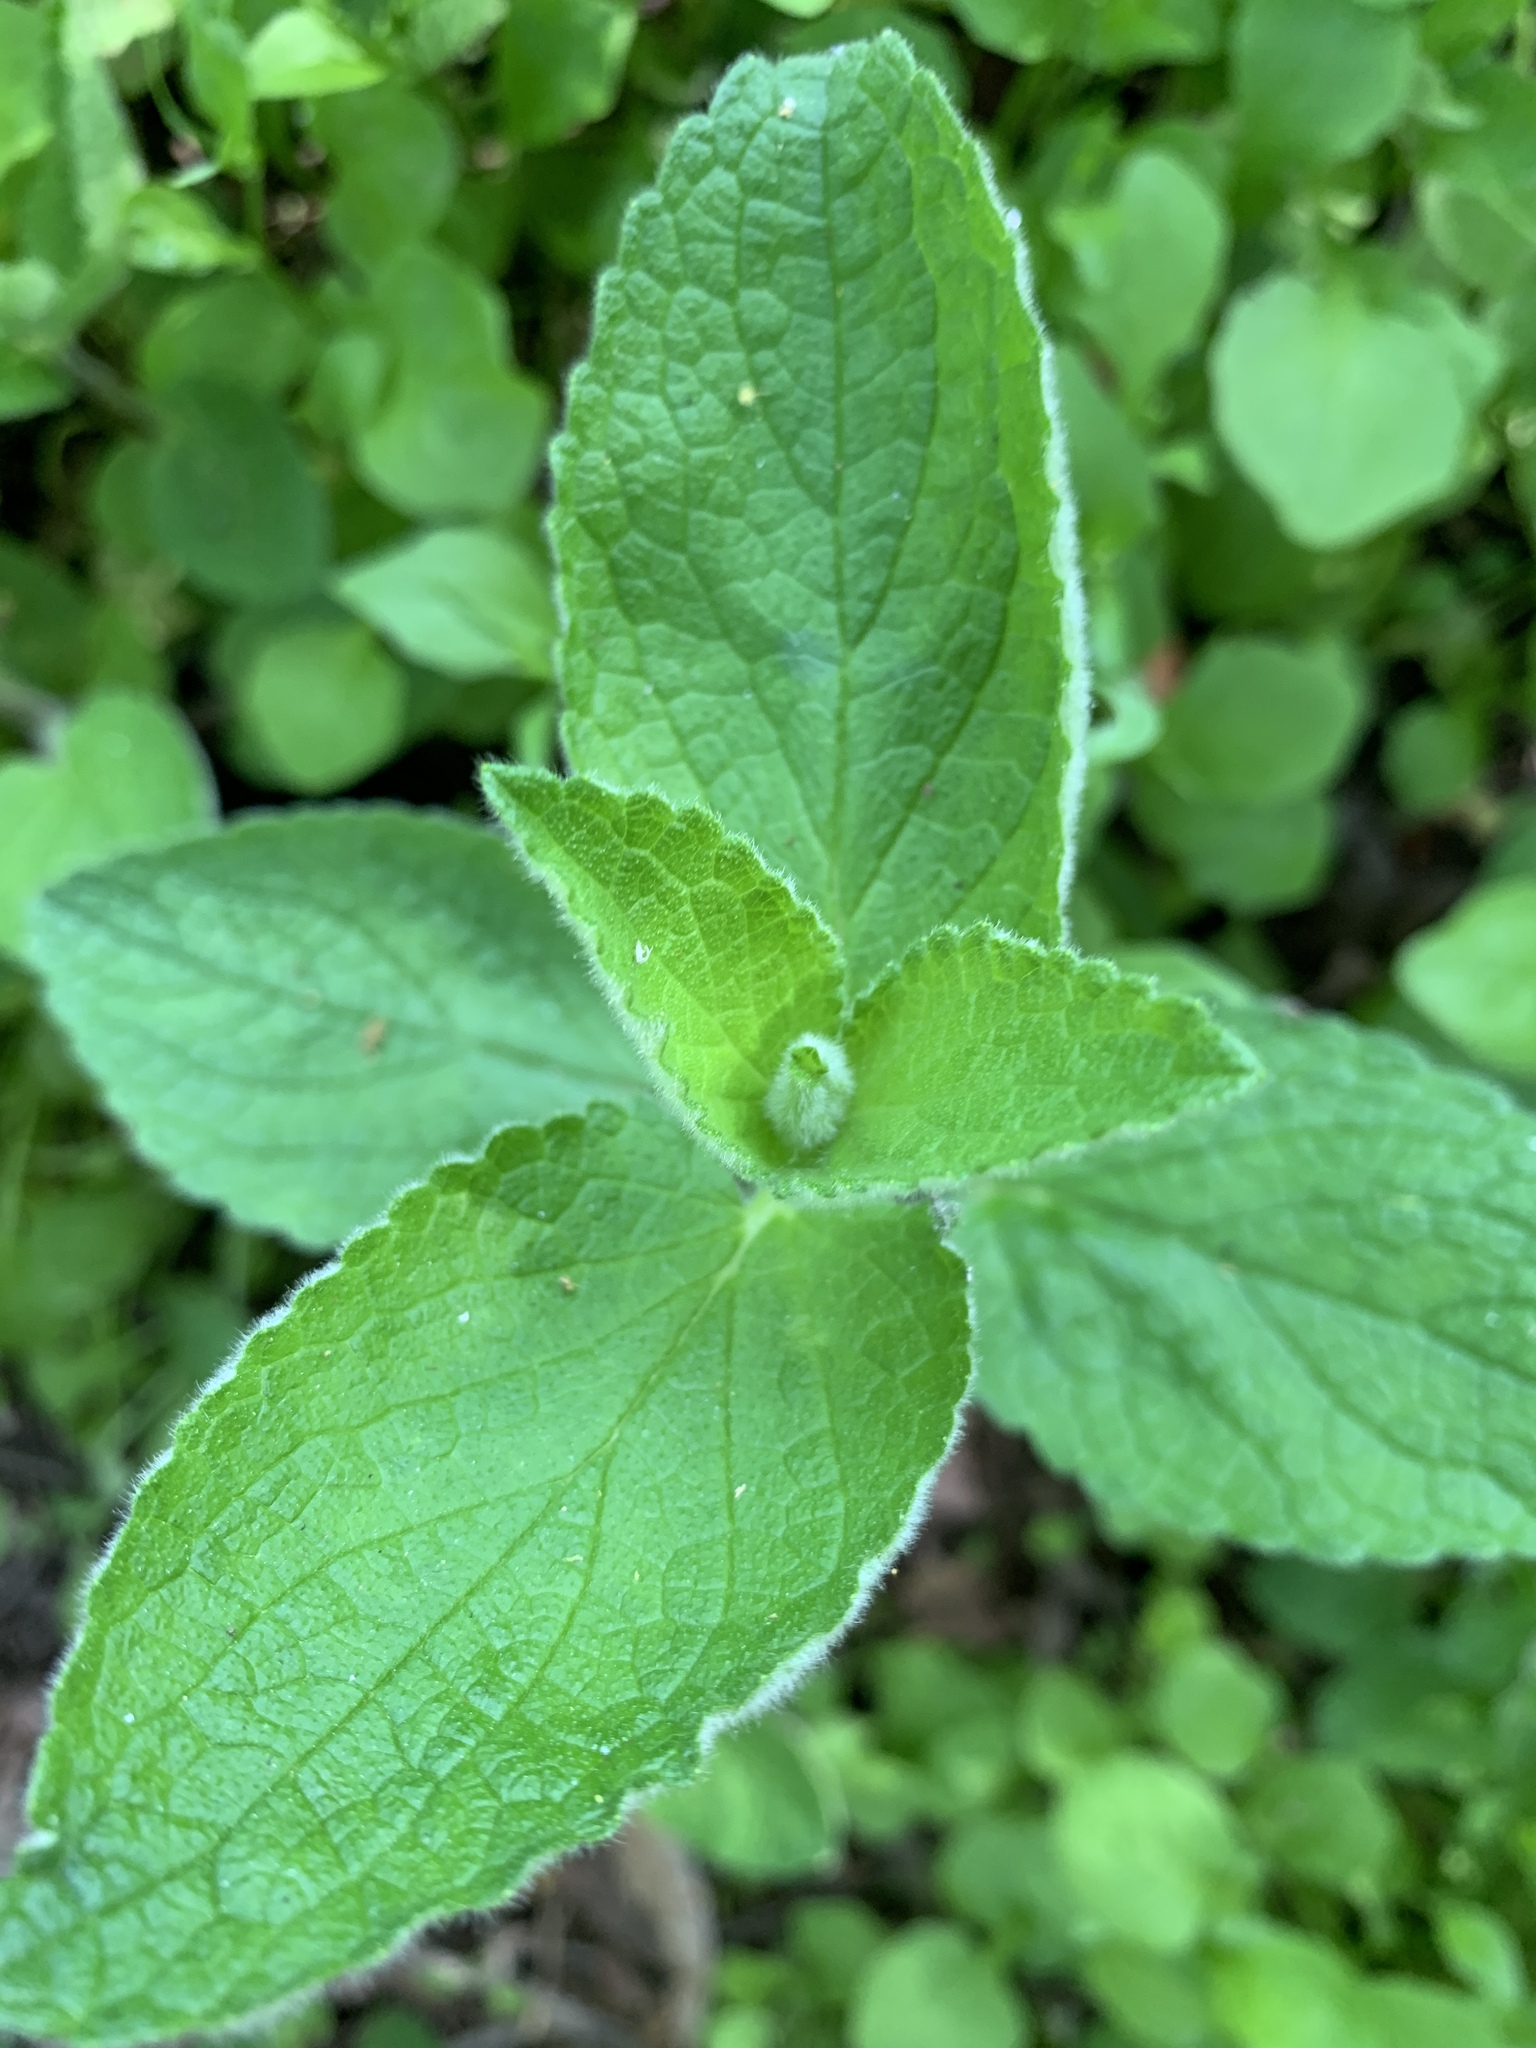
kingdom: Plantae
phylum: Tracheophyta
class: Magnoliopsida
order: Lamiales
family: Lamiaceae
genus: Stachys
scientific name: Stachys rigida
